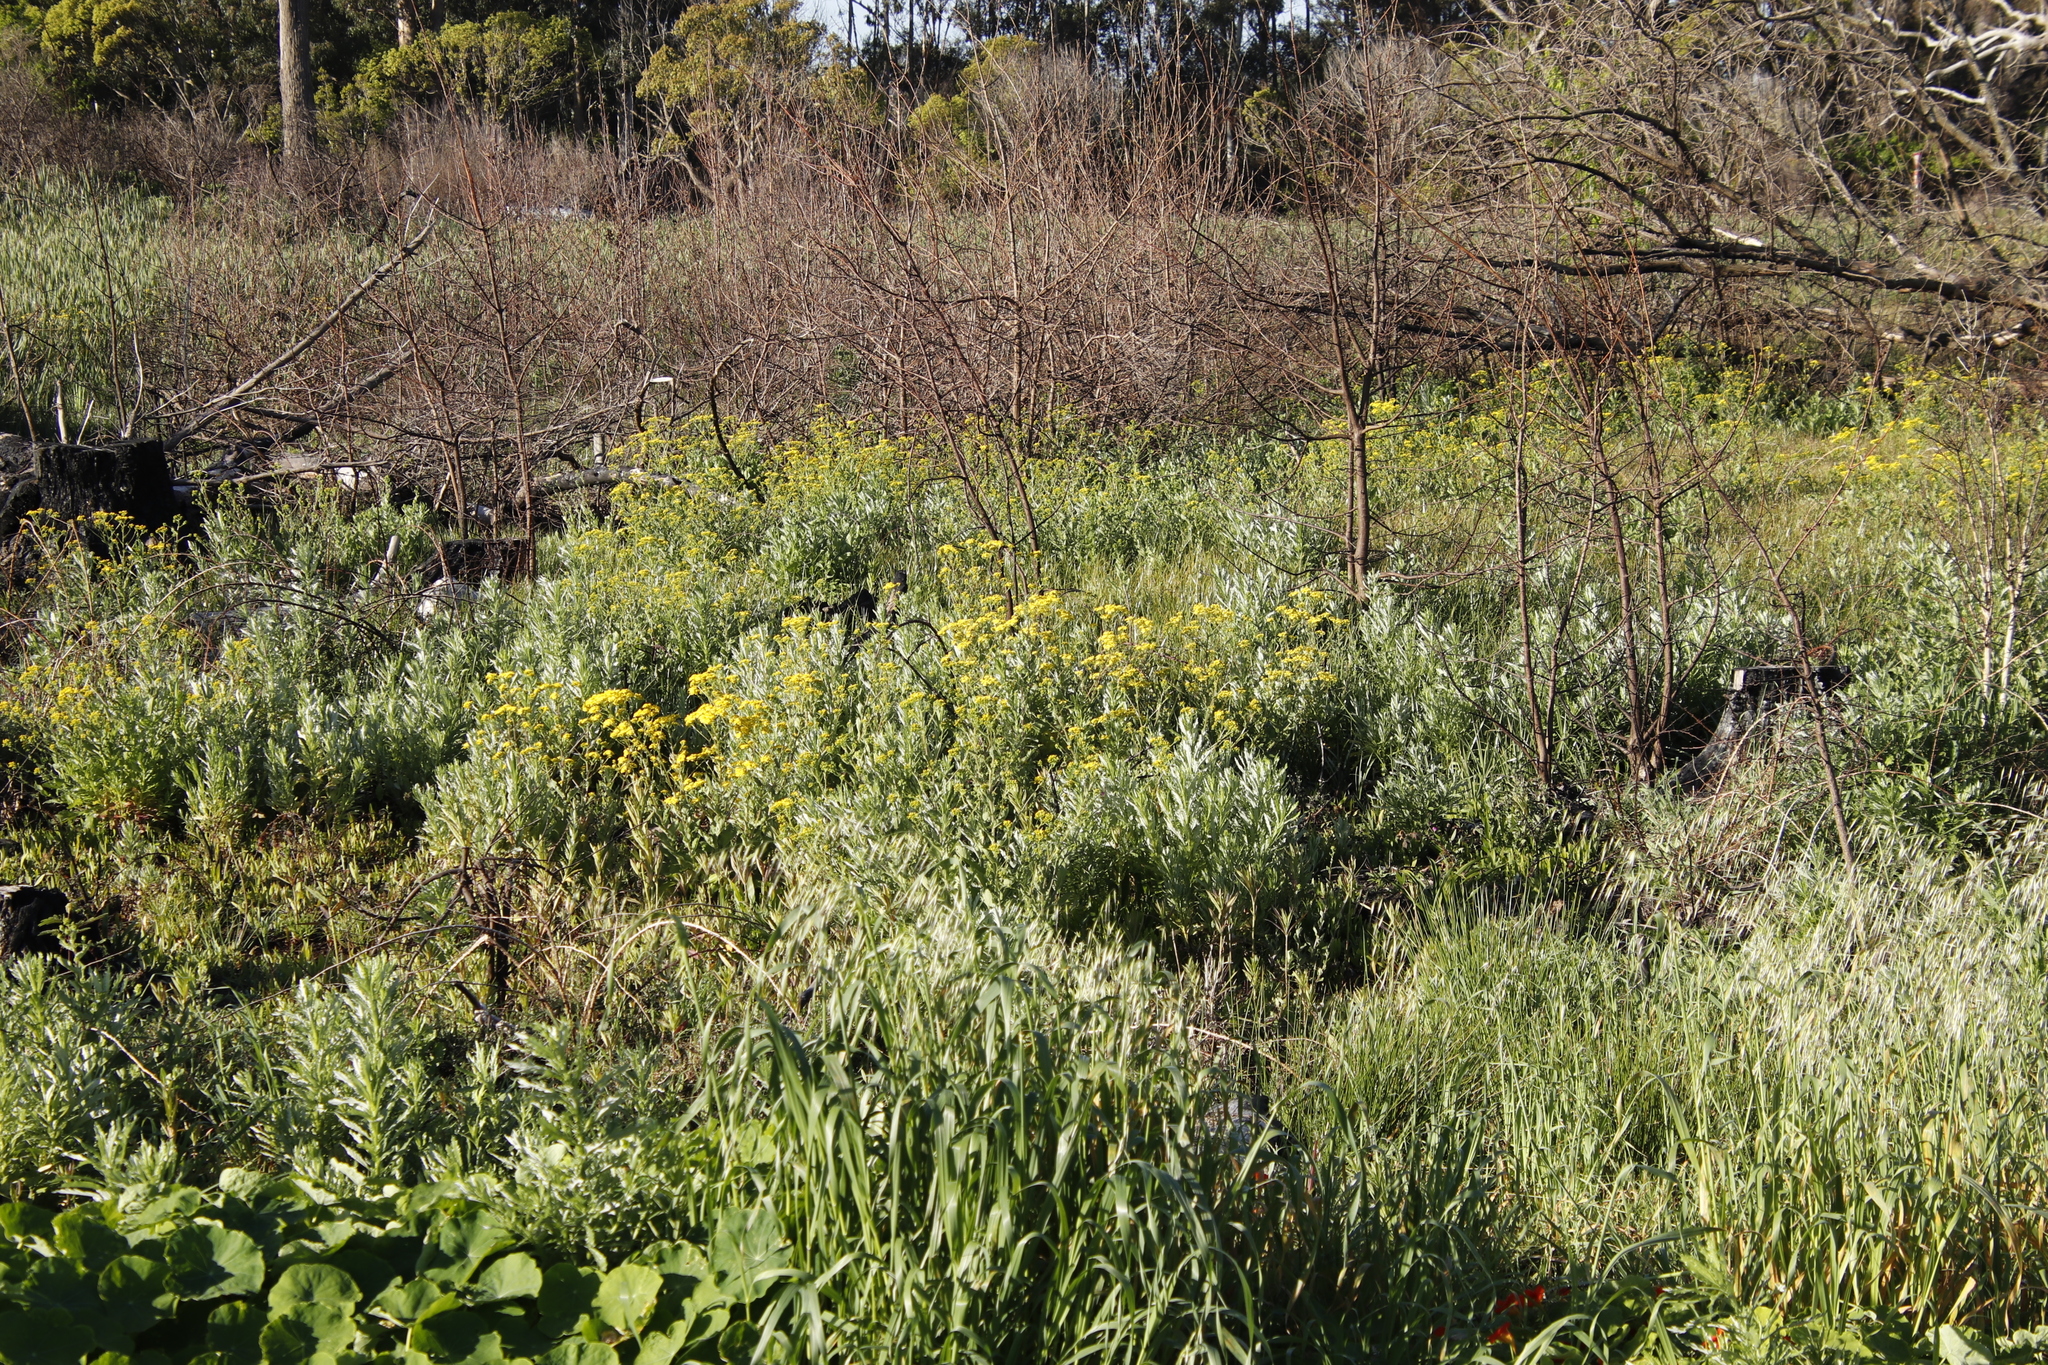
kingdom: Plantae
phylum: Tracheophyta
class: Magnoliopsida
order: Asterales
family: Asteraceae
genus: Senecio
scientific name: Senecio pterophorus
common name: Shoddy ragwort
